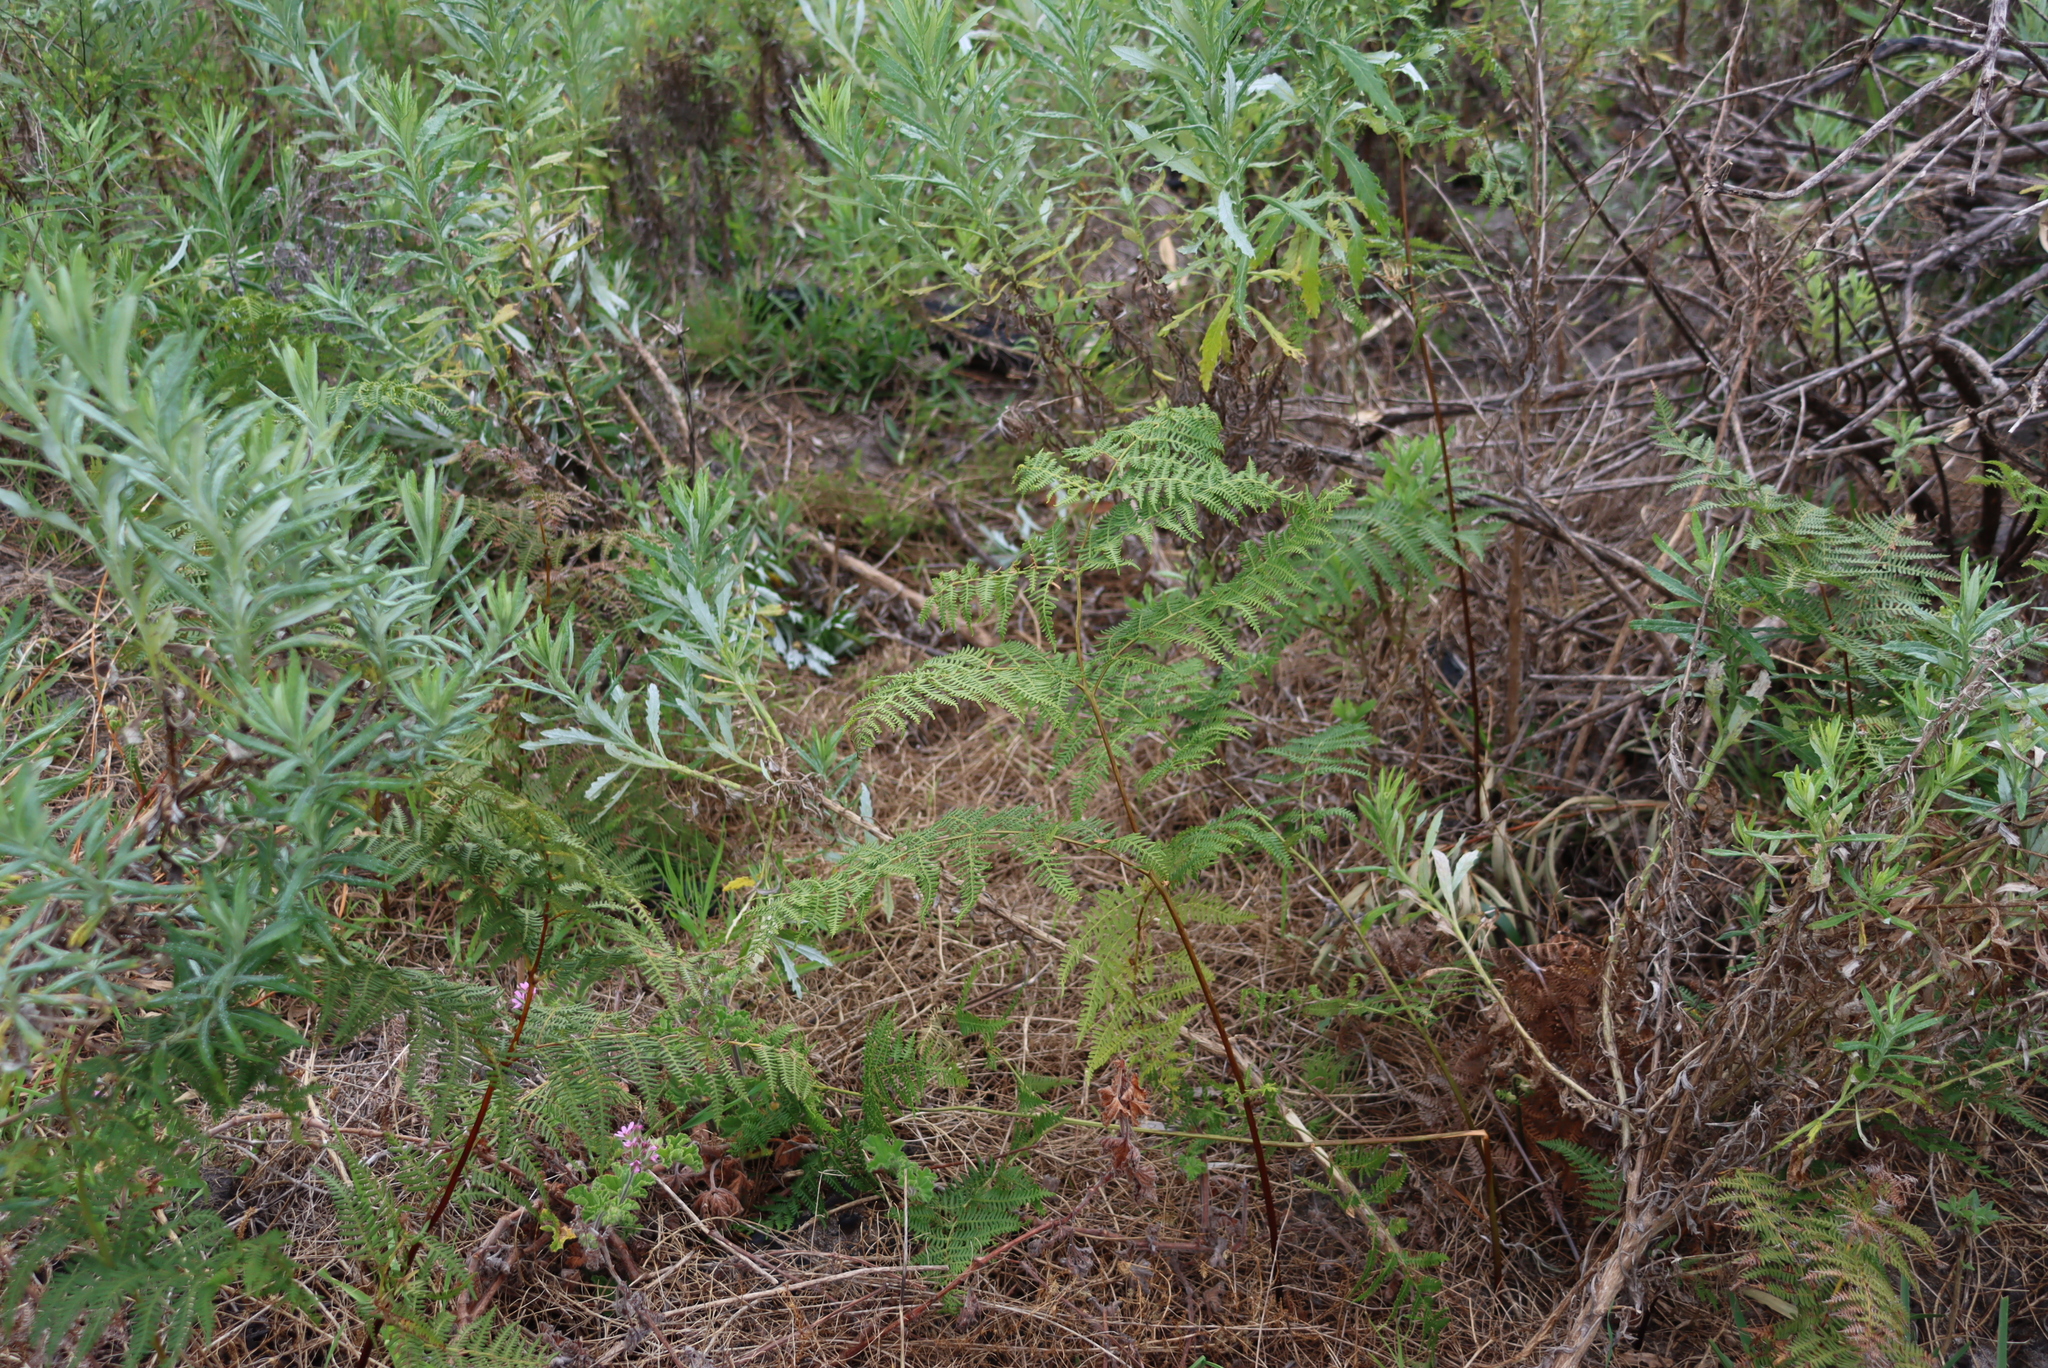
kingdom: Plantae
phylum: Tracheophyta
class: Polypodiopsida
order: Polypodiales
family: Dennstaedtiaceae
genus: Pteridium
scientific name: Pteridium aquilinum
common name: Bracken
